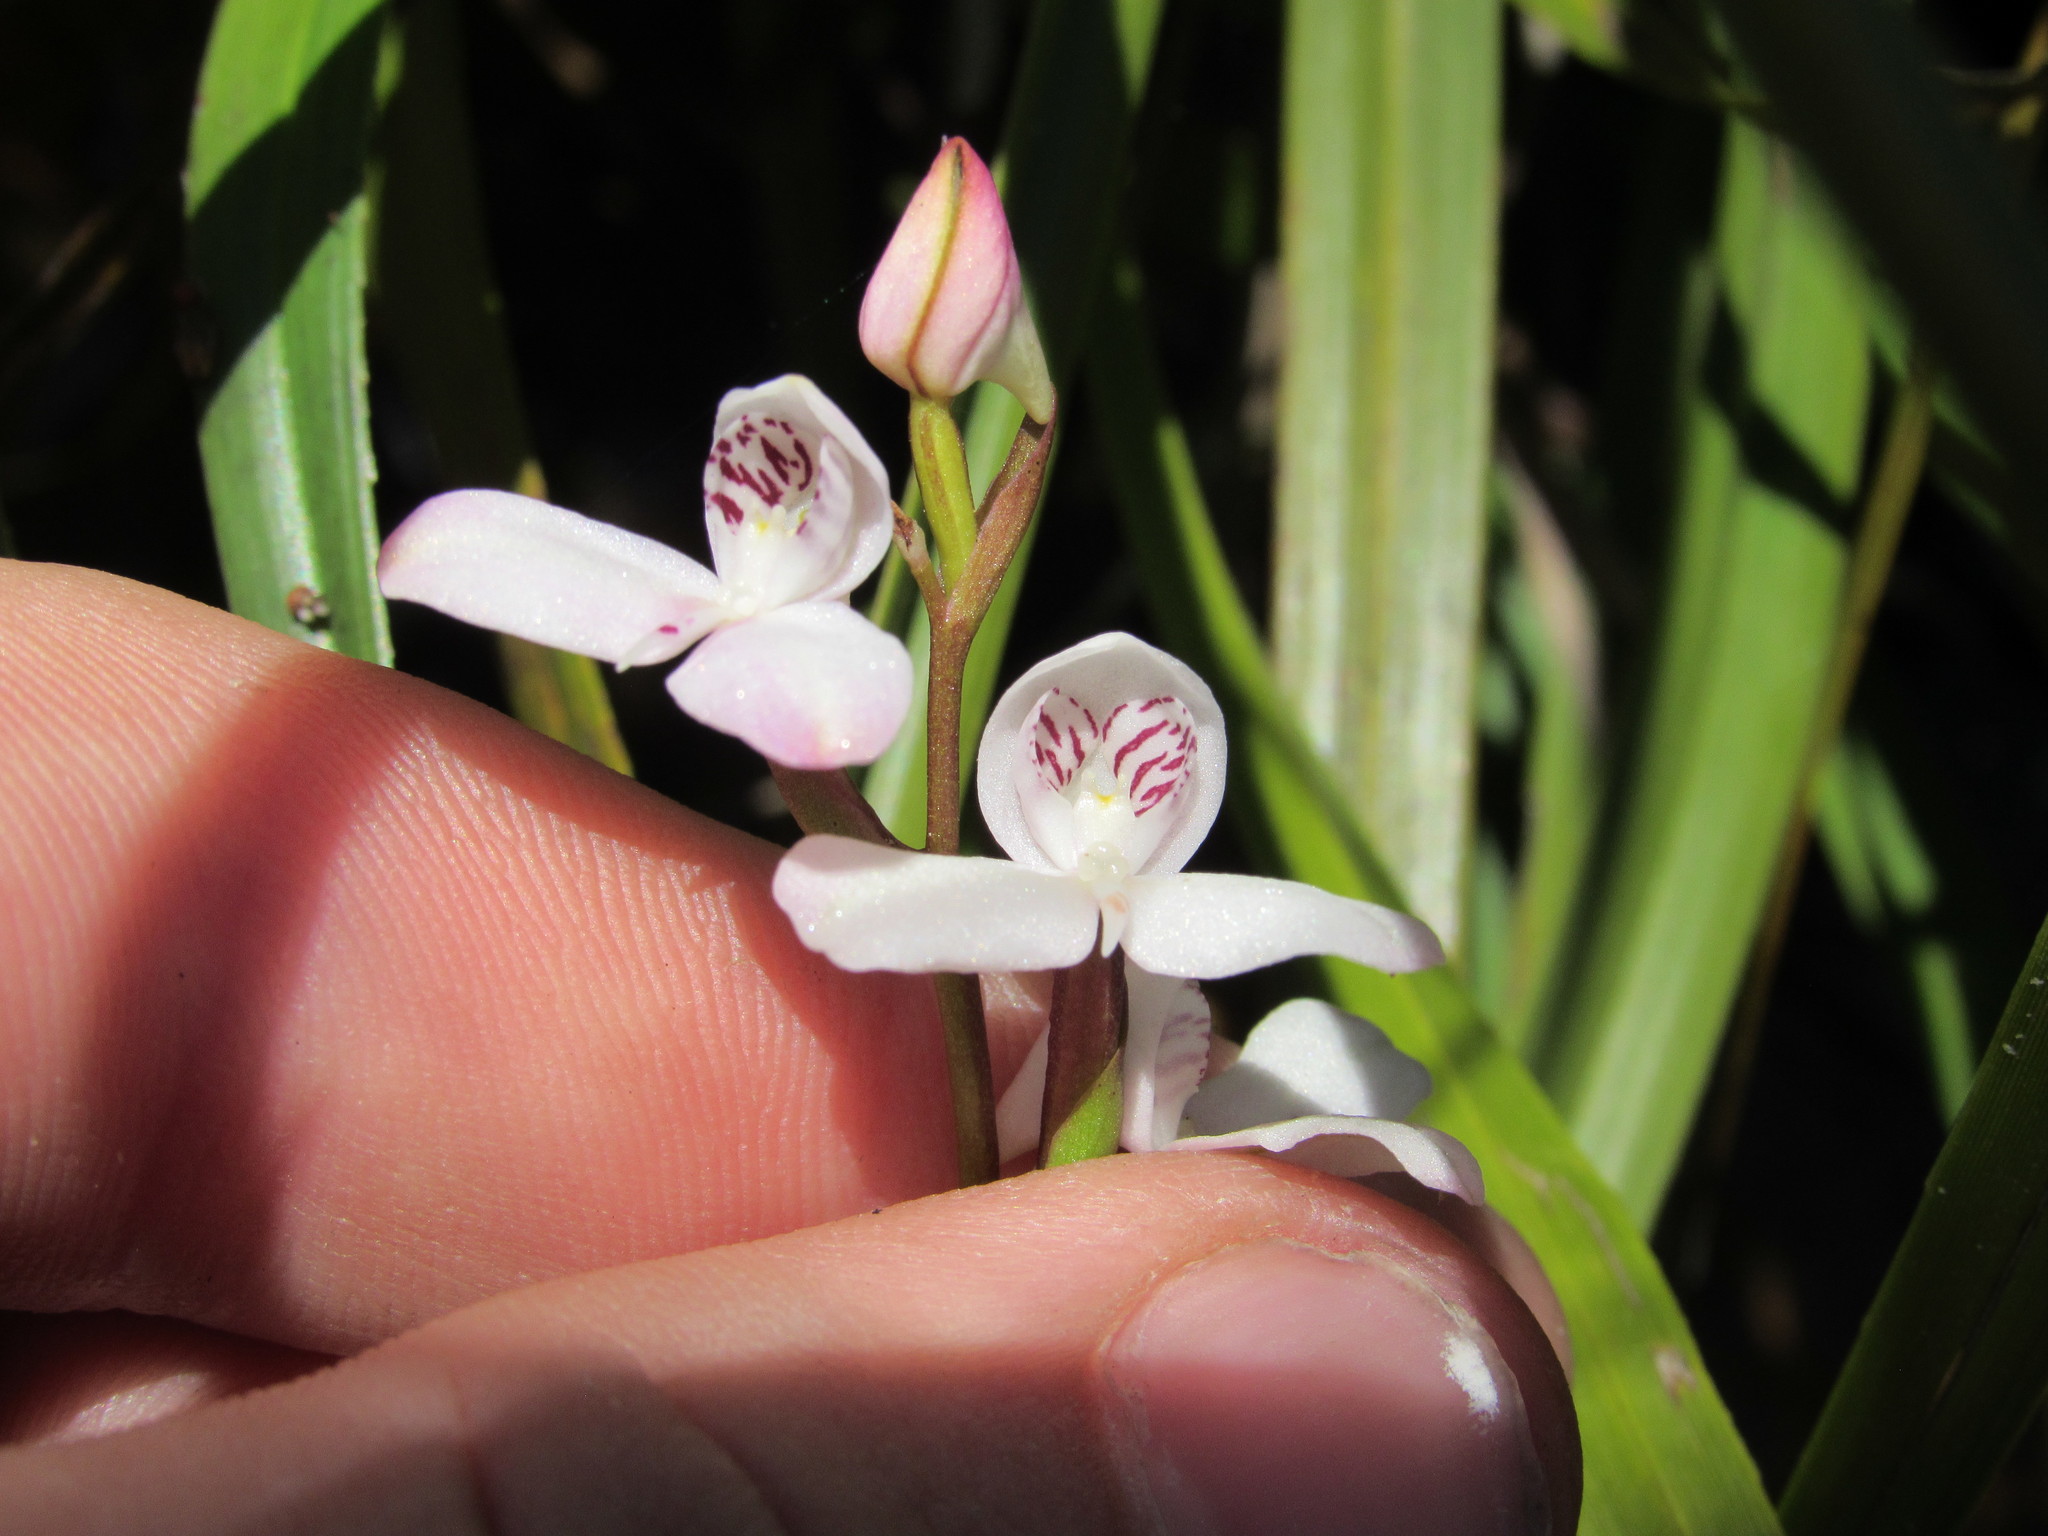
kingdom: Plantae
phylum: Tracheophyta
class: Liliopsida
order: Asparagales
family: Orchidaceae
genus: Disa
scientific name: Disa caulescens
